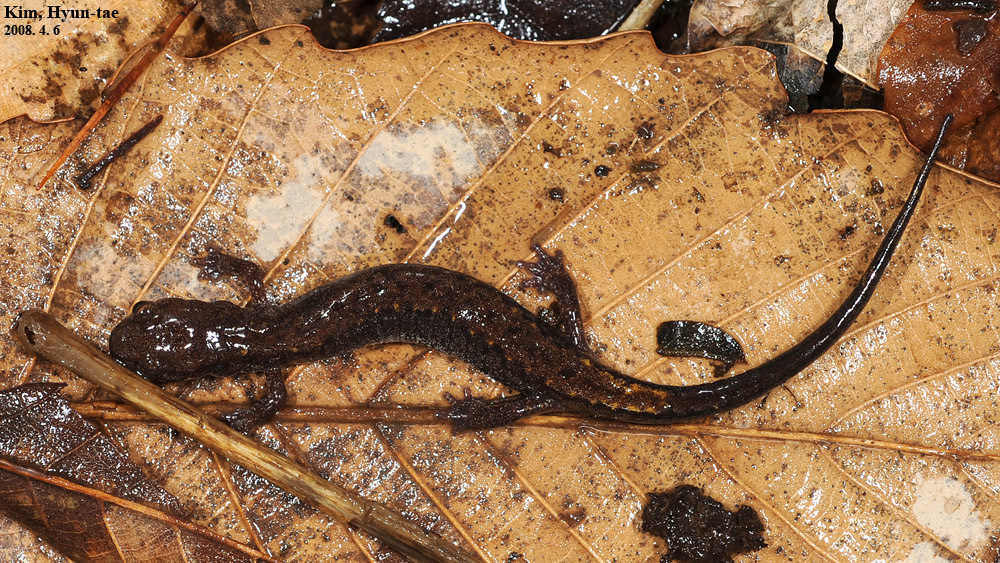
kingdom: Animalia
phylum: Chordata
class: Amphibia
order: Caudata
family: Plethodontidae
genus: Karsenia
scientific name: Karsenia koreana
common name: Korean crevice salamander
